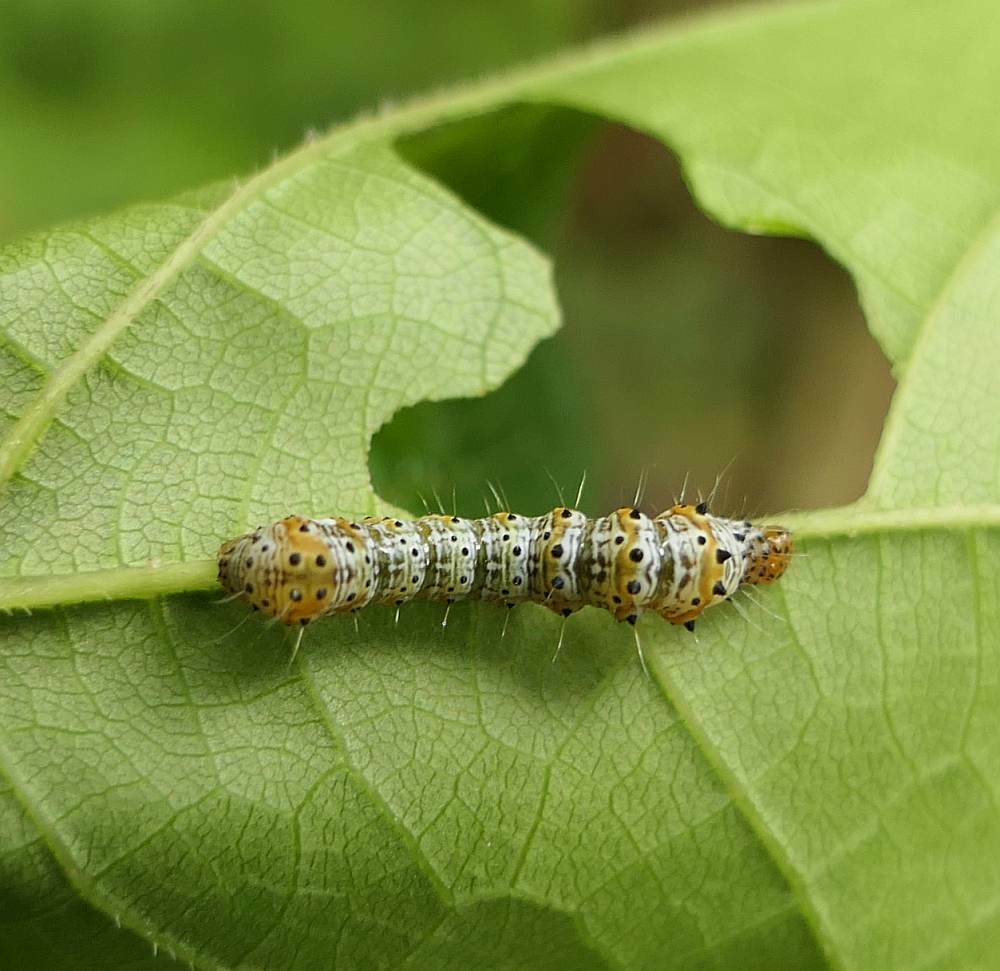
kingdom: Animalia
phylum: Arthropoda
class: Insecta
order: Lepidoptera
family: Noctuidae
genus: Alypia
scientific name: Alypia octomaculata
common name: Eight-spotted forester
